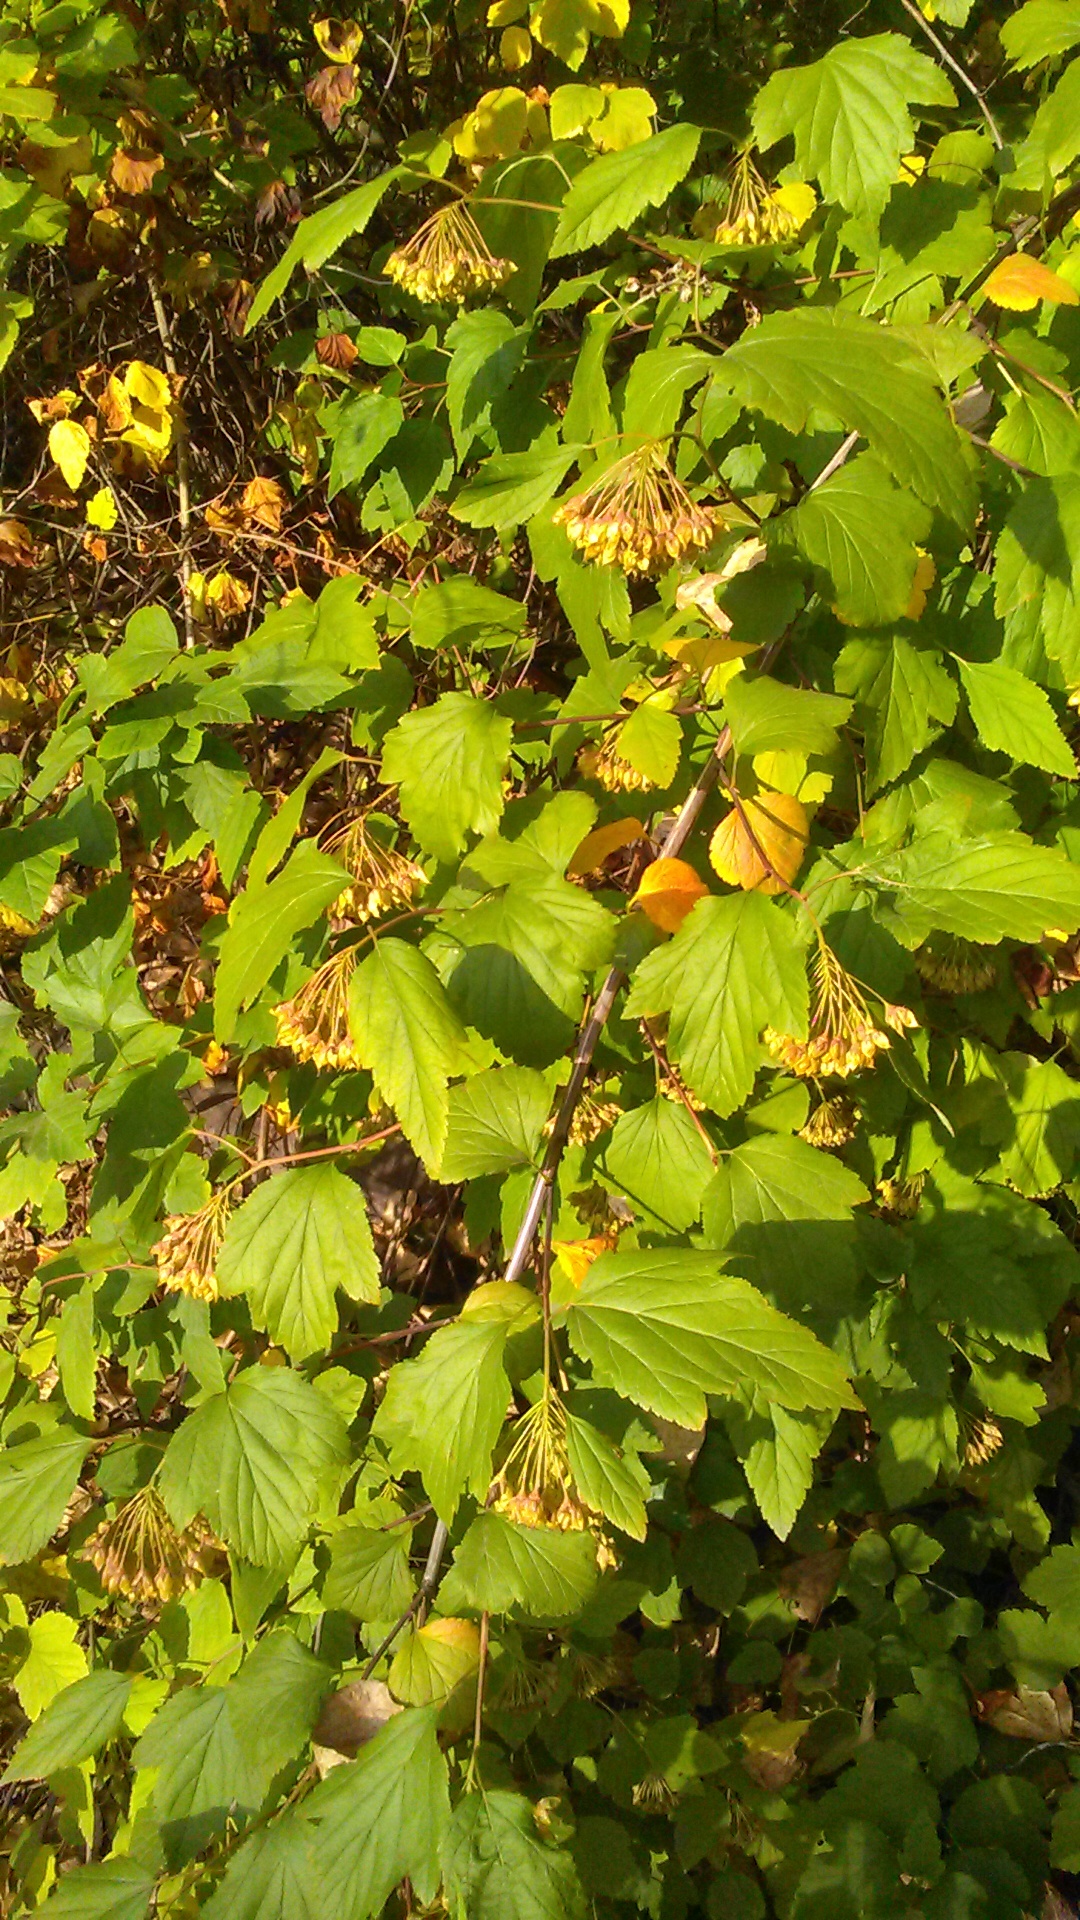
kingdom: Plantae
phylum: Tracheophyta
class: Magnoliopsida
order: Rosales
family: Rosaceae
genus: Physocarpus
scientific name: Physocarpus opulifolius
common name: Ninebark
